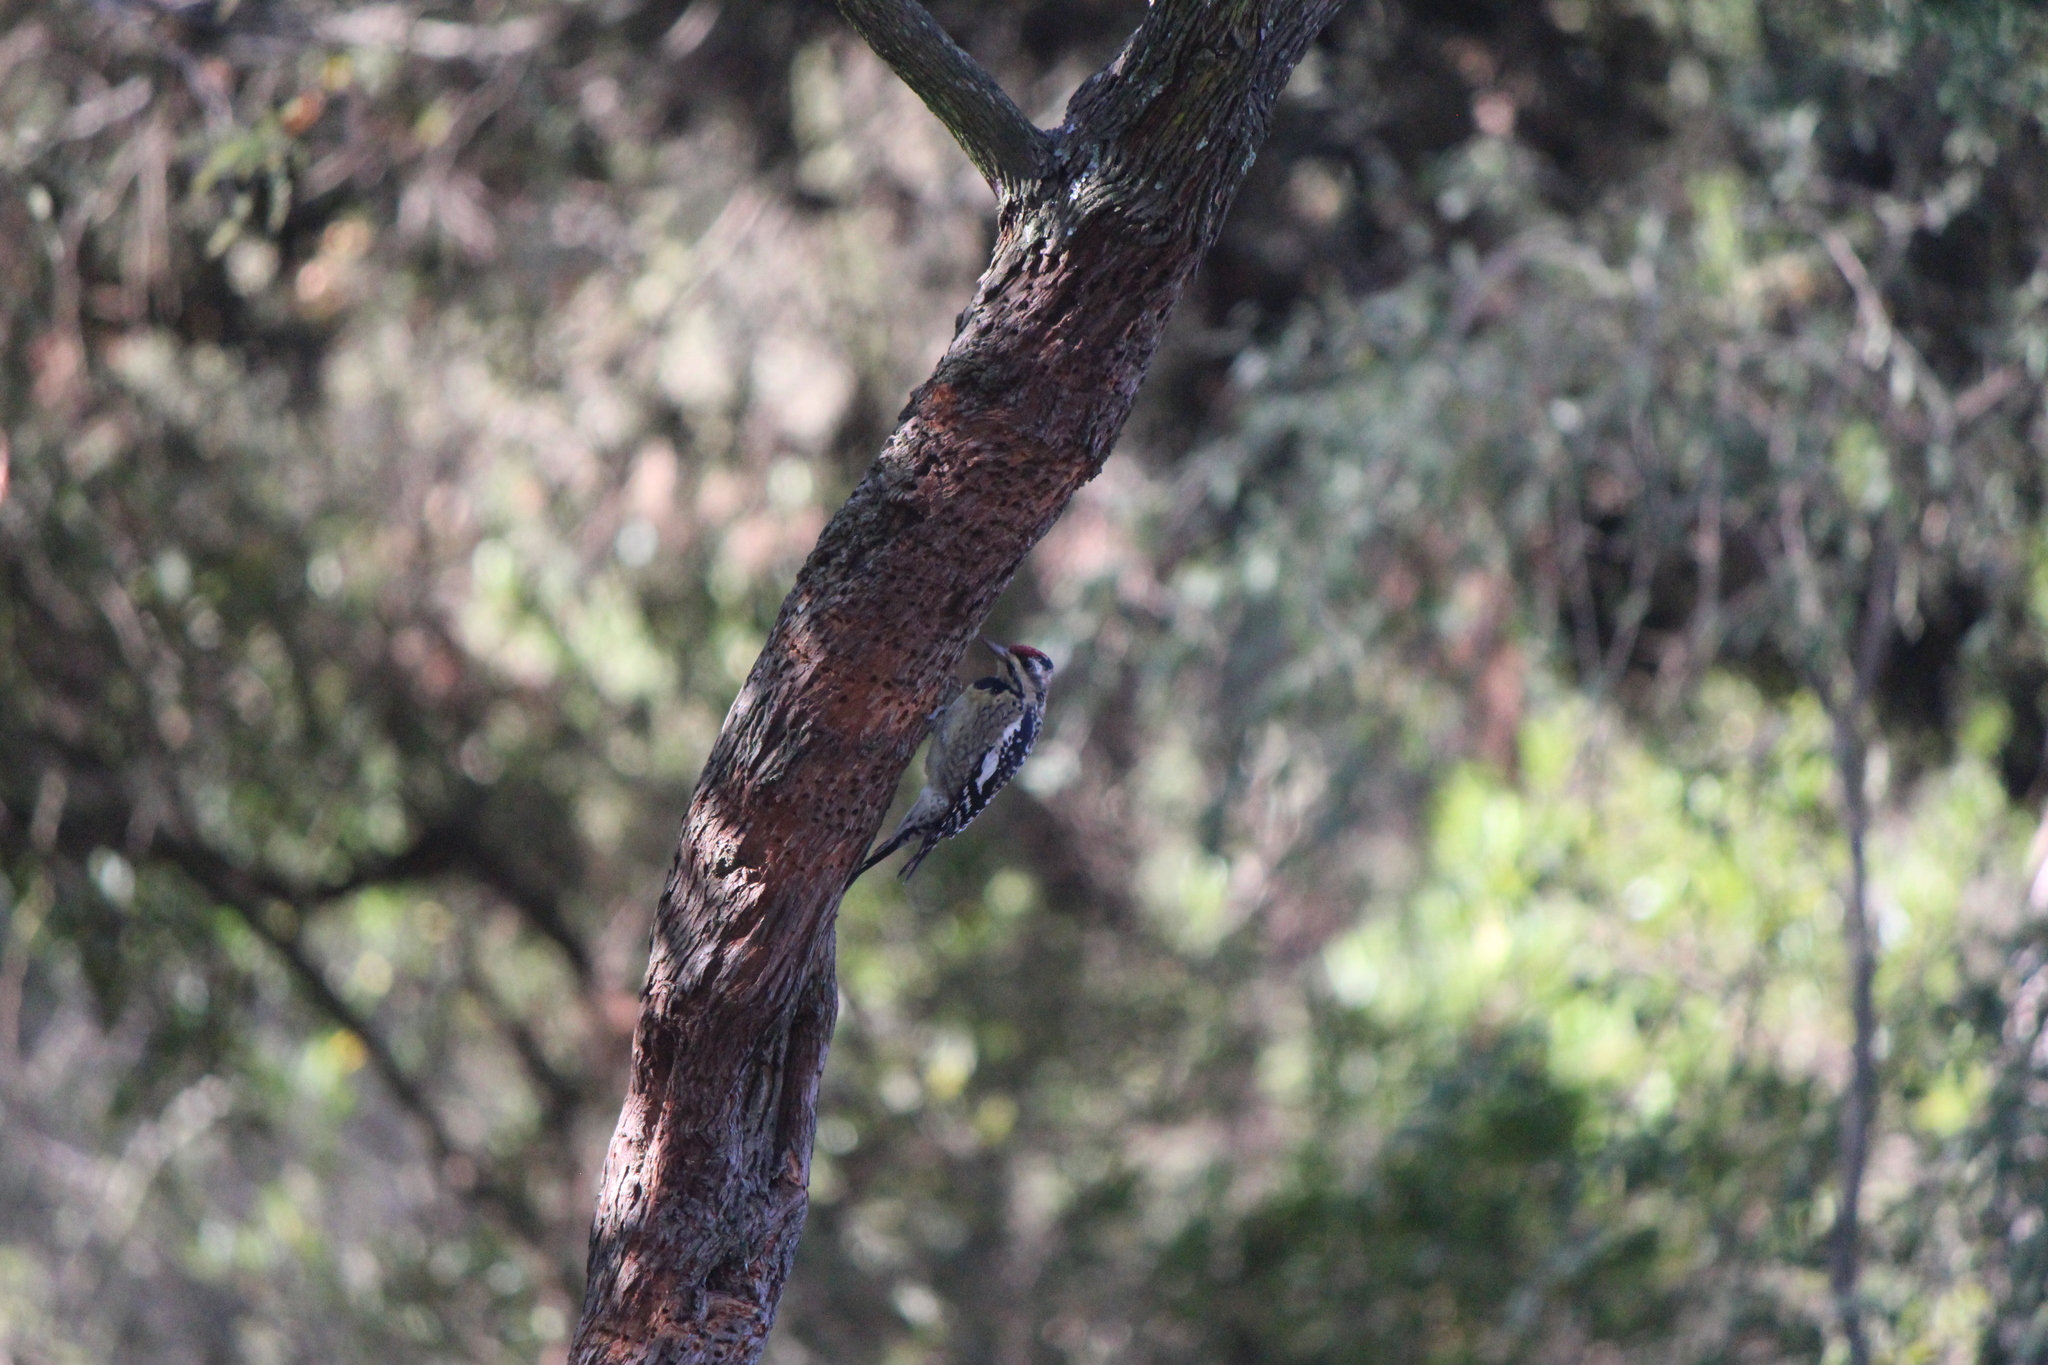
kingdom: Animalia
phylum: Chordata
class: Aves
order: Piciformes
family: Picidae
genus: Sphyrapicus
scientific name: Sphyrapicus varius
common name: Yellow-bellied sapsucker
